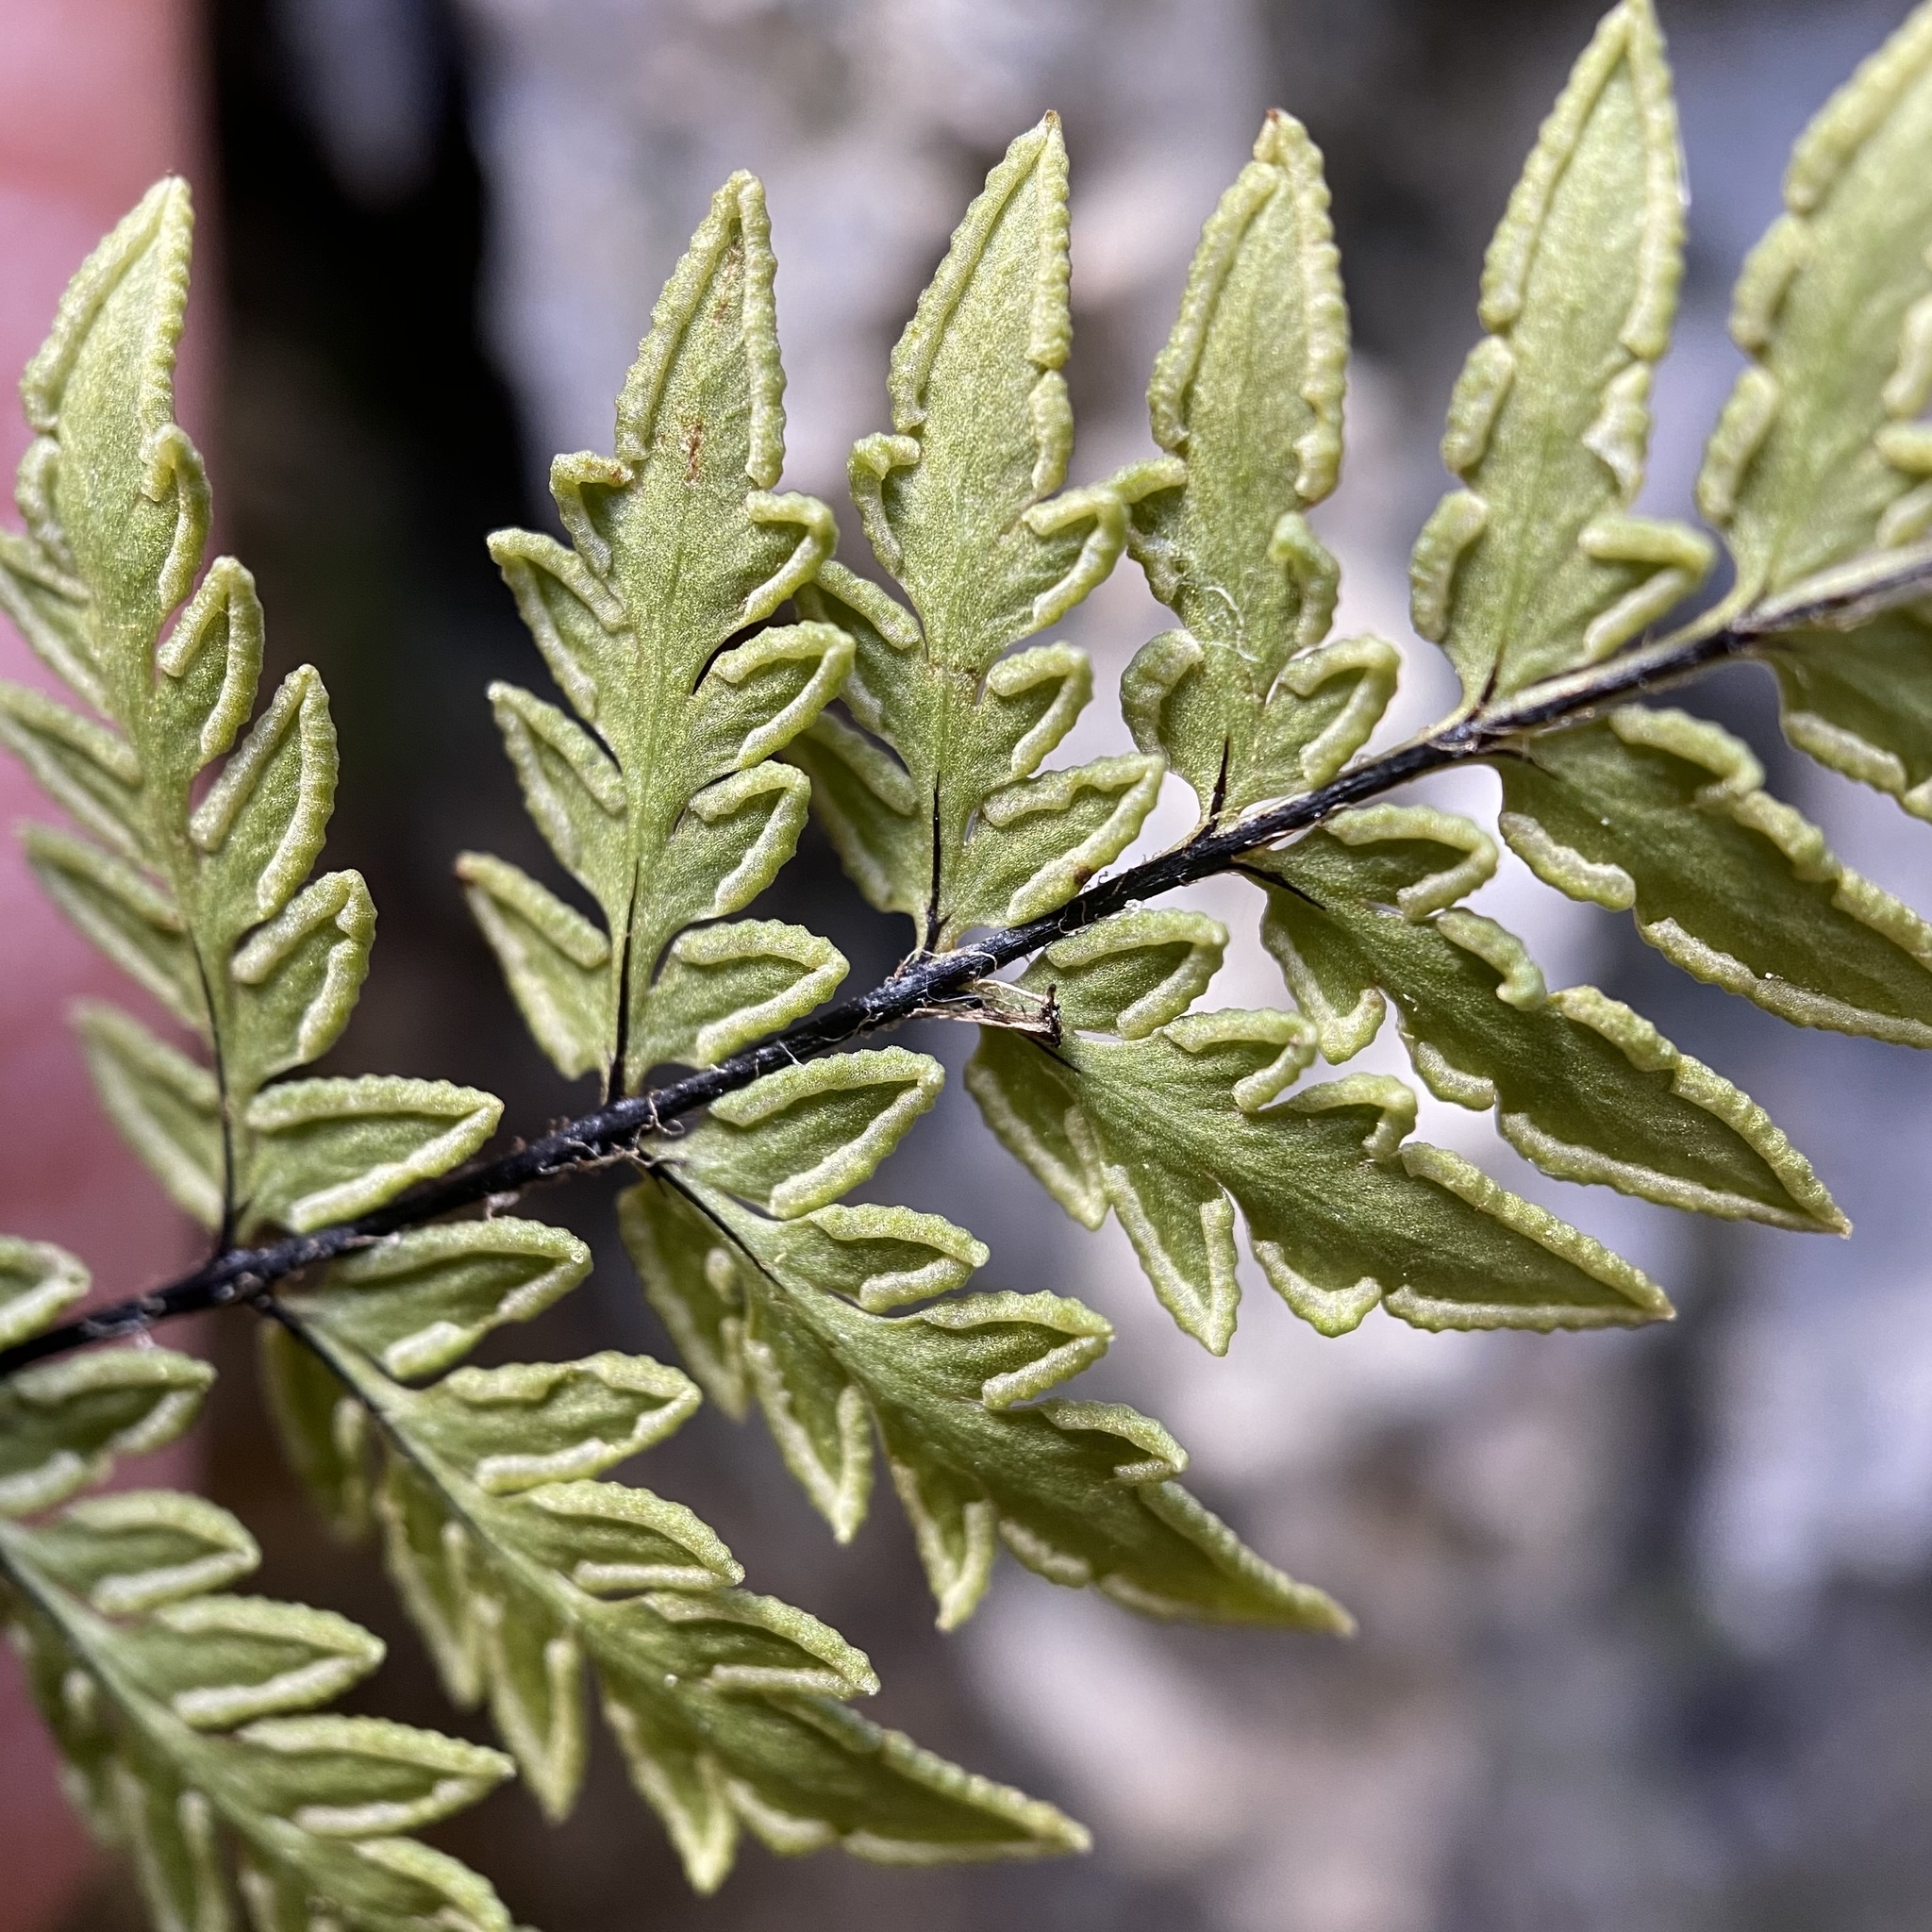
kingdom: Plantae
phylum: Tracheophyta
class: Polypodiopsida
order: Polypodiales
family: Pteridaceae
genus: Myriopteris
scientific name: Myriopteris alabamensis
